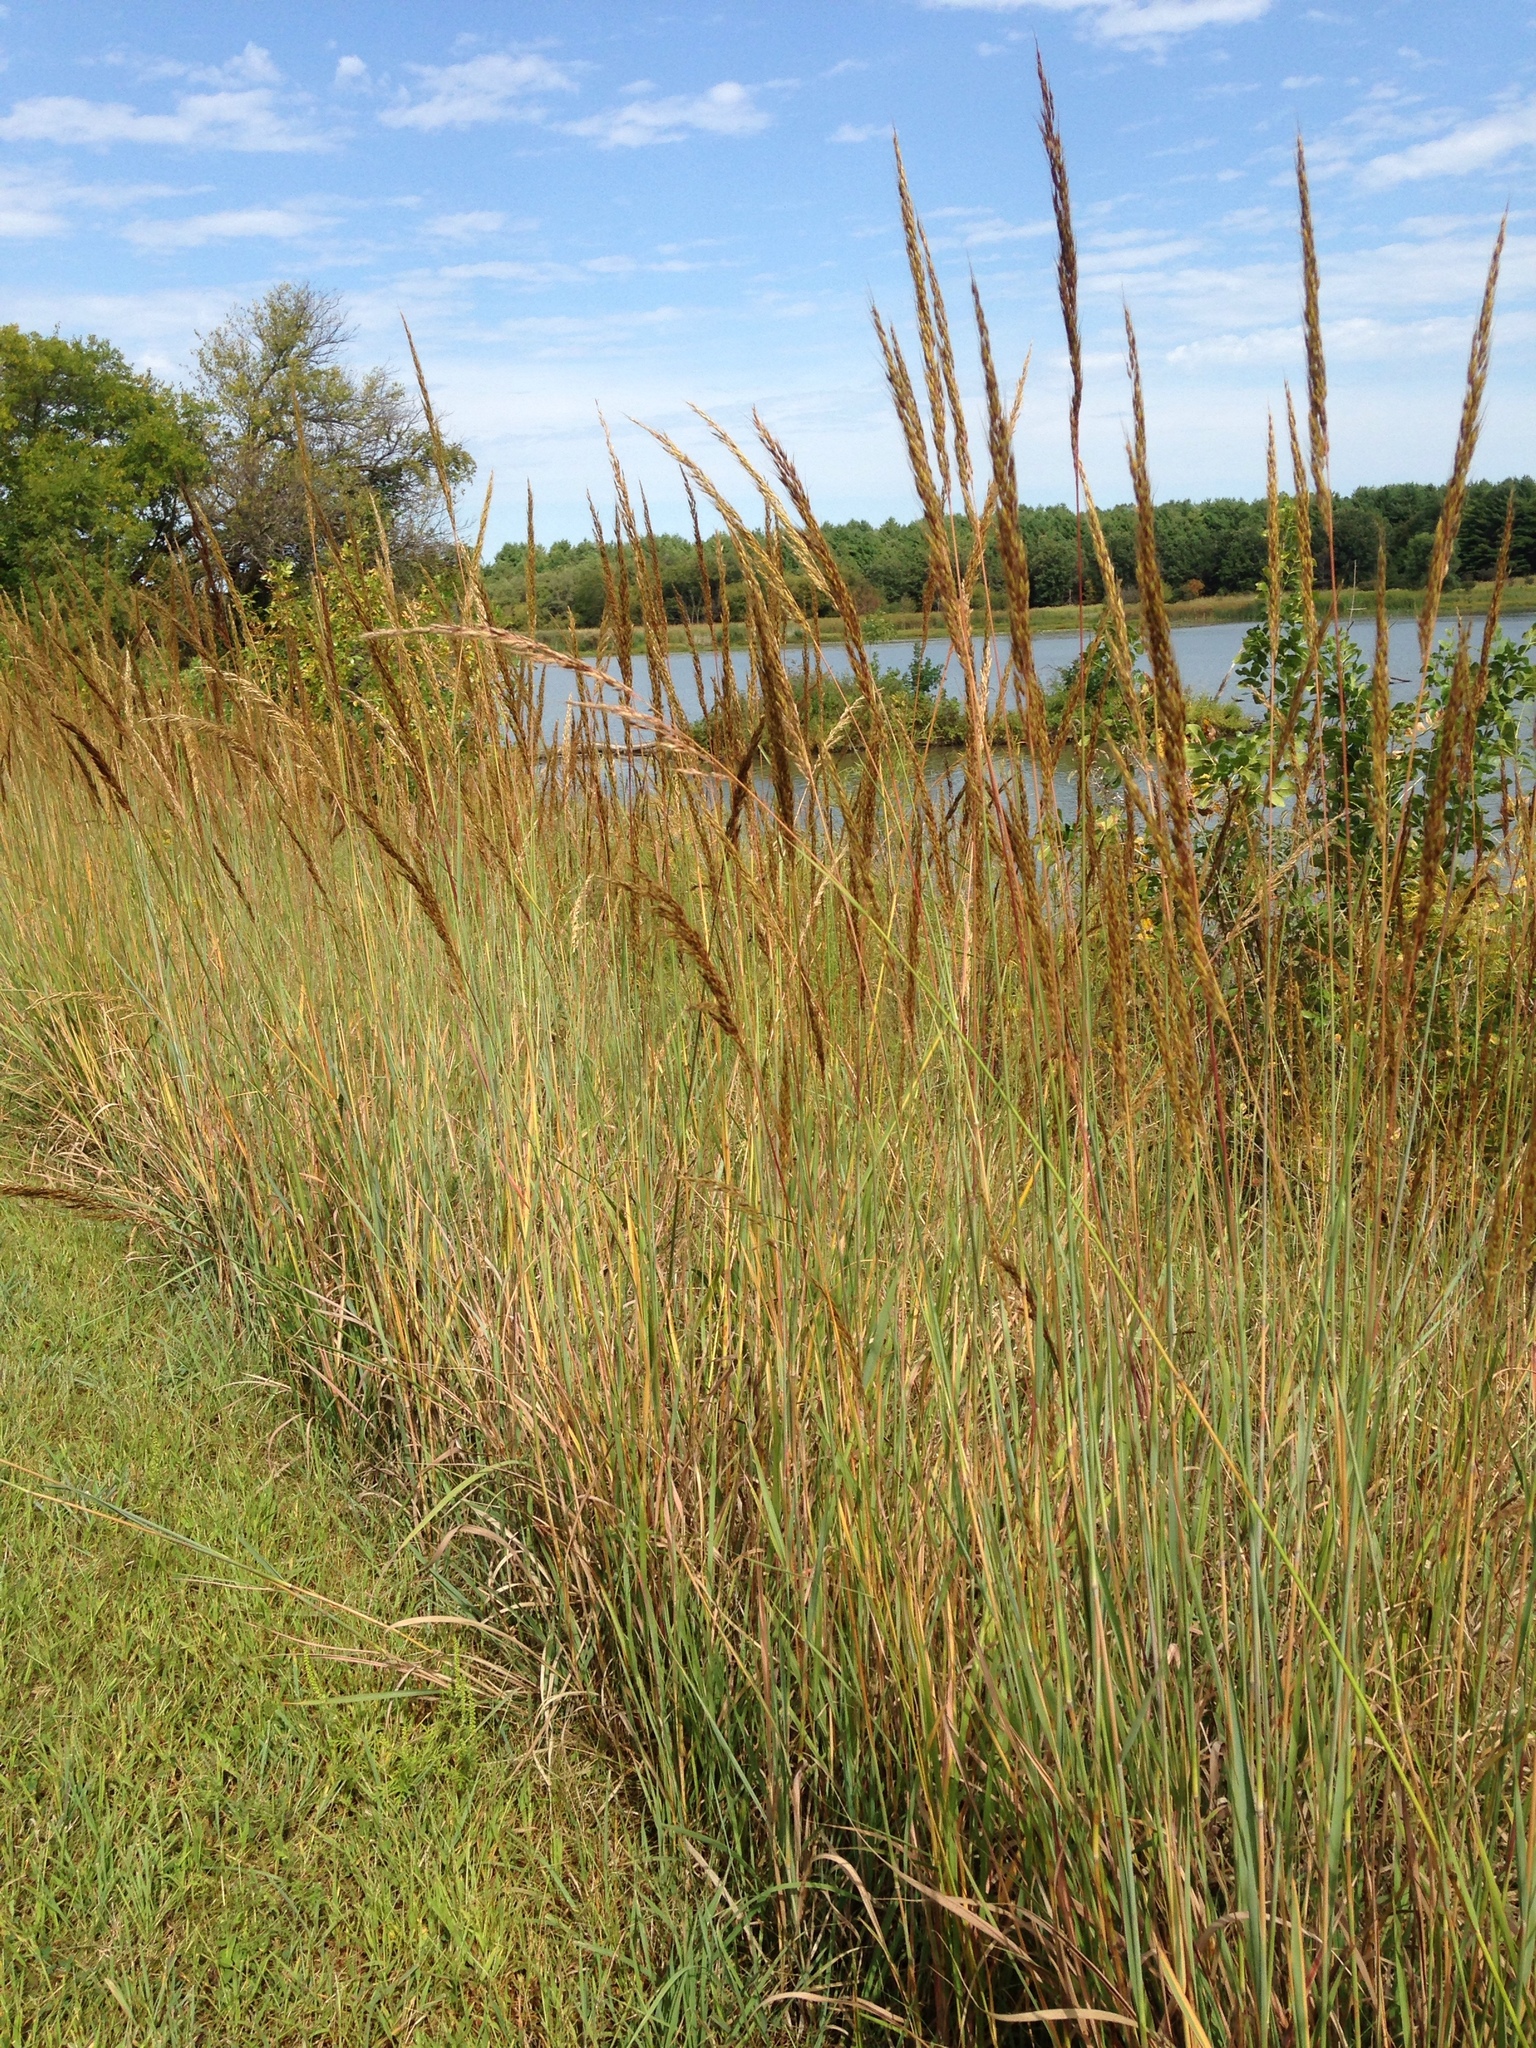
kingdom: Plantae
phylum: Tracheophyta
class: Liliopsida
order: Poales
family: Poaceae
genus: Sorghastrum
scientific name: Sorghastrum nutans
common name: Indian grass
